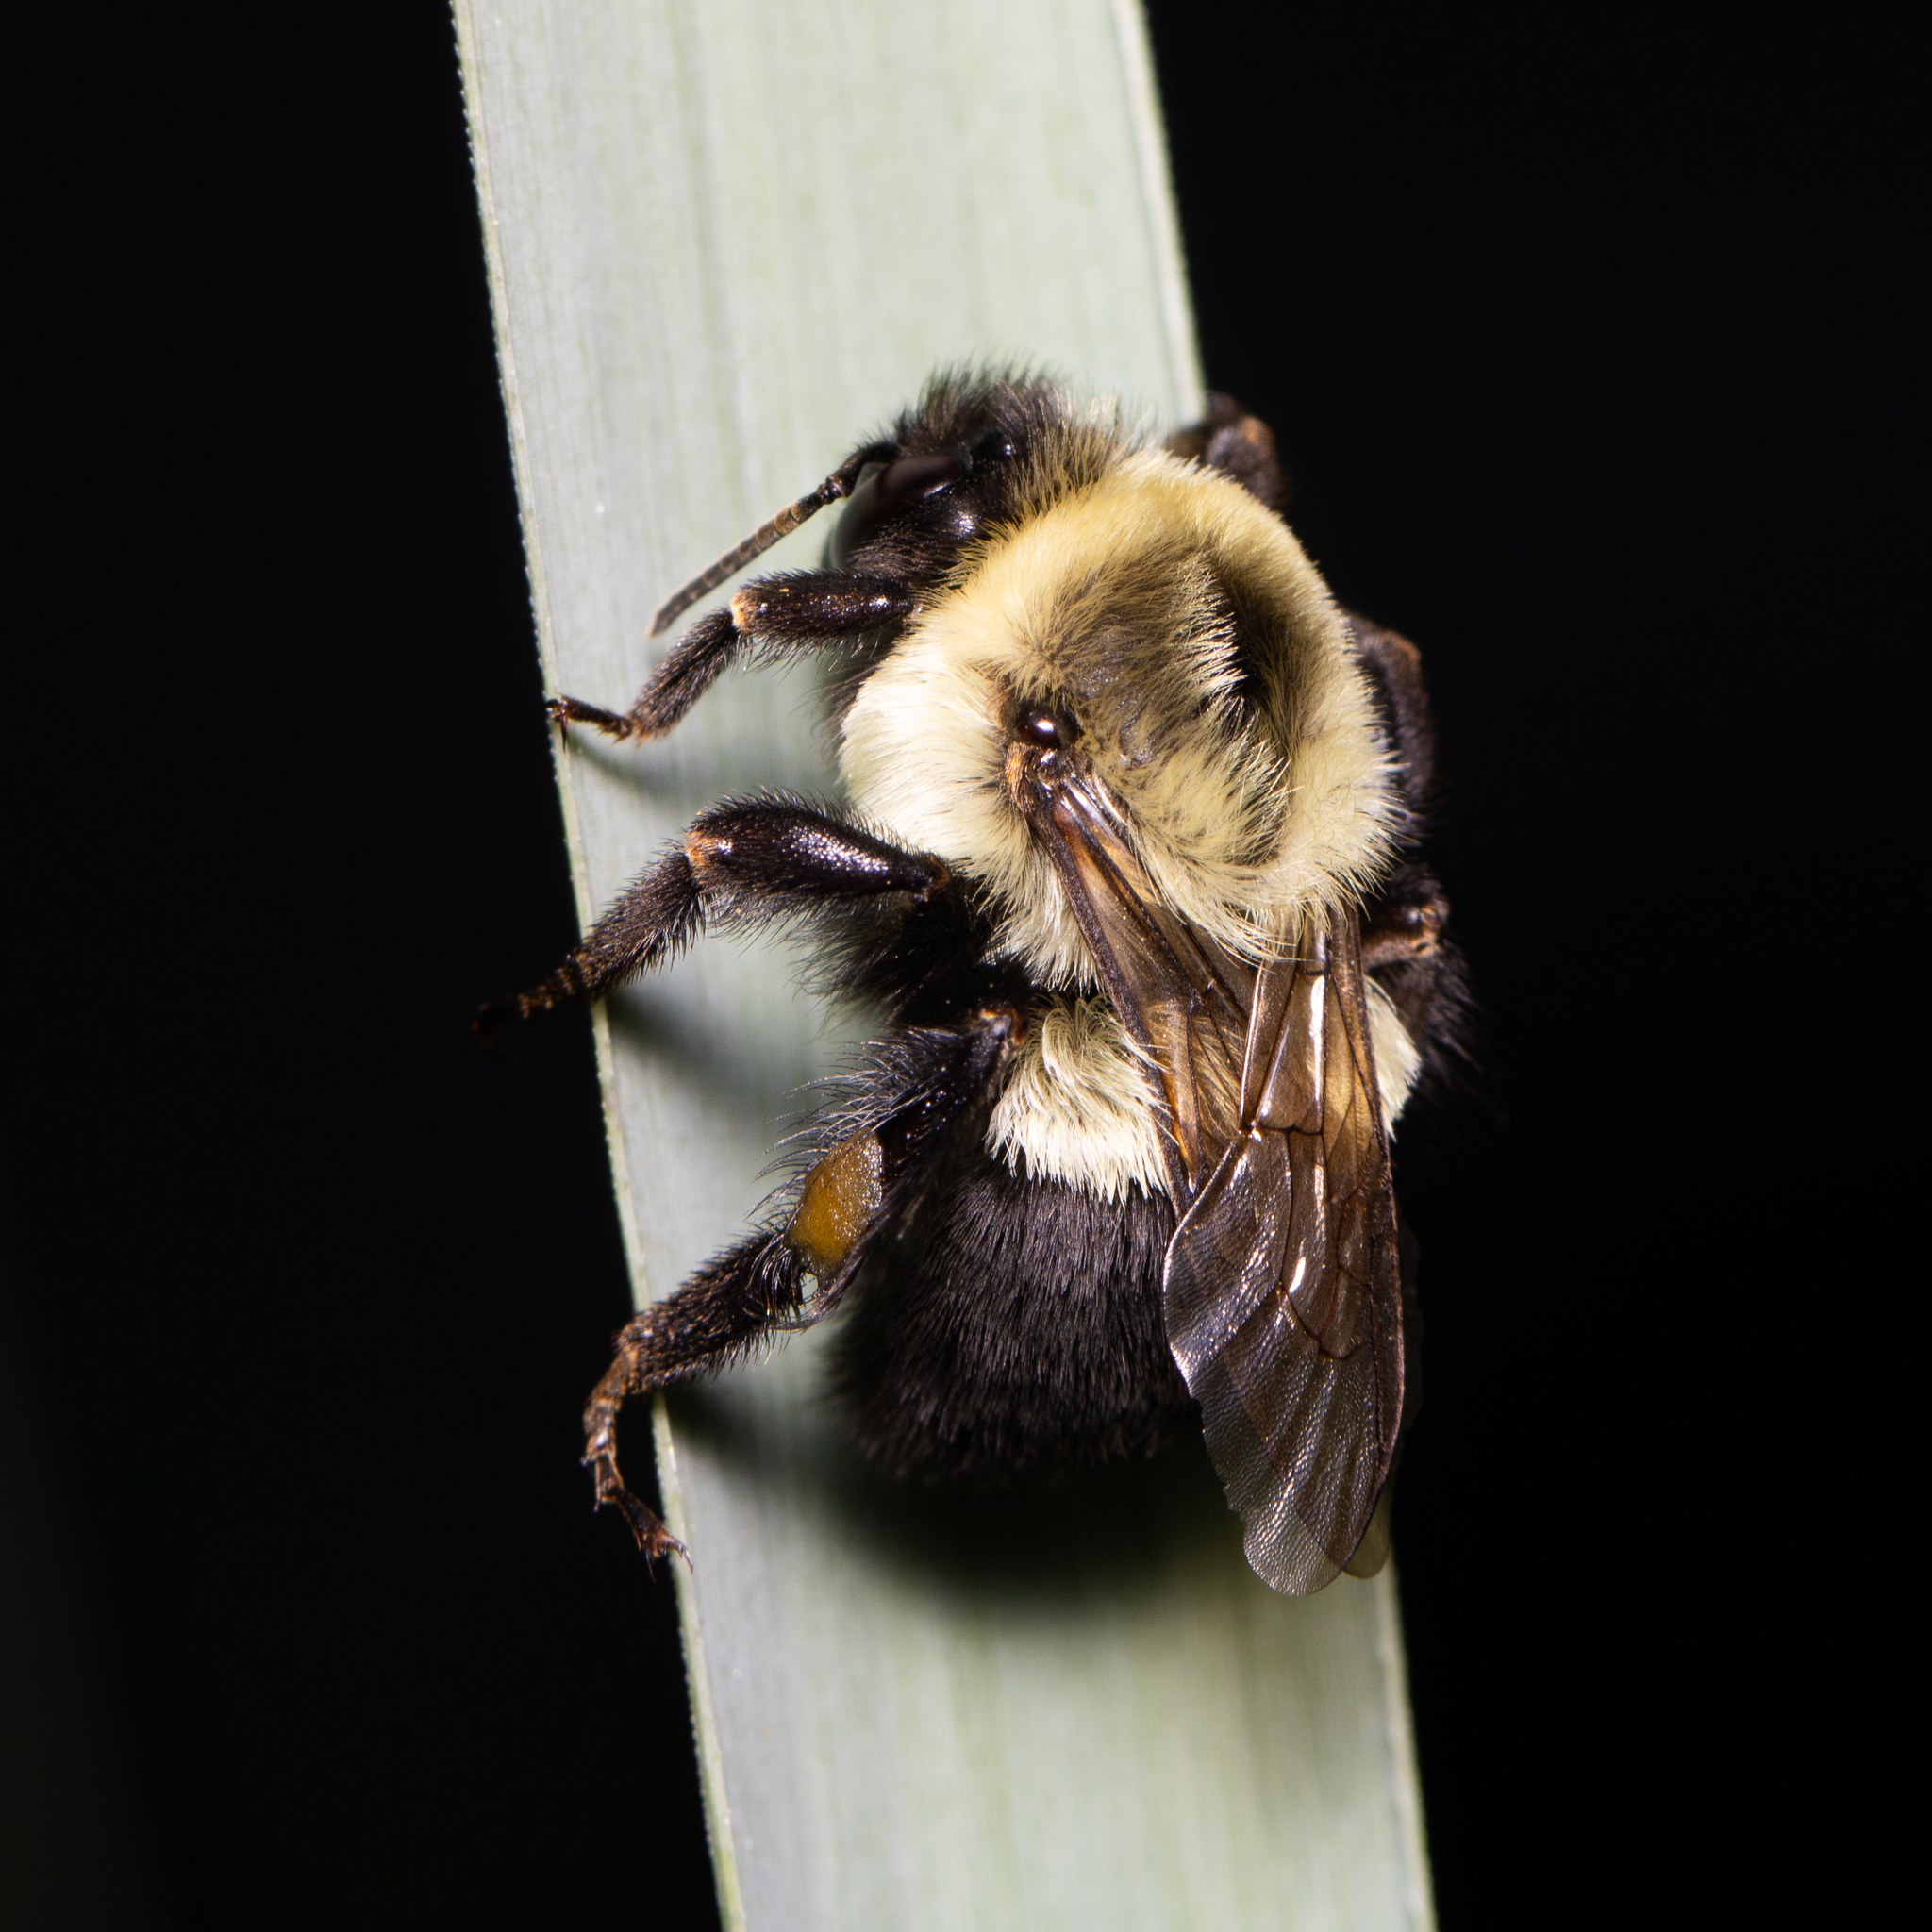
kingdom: Animalia
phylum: Arthropoda
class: Insecta
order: Hymenoptera
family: Apidae
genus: Bombus
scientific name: Bombus impatiens
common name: Common eastern bumble bee
